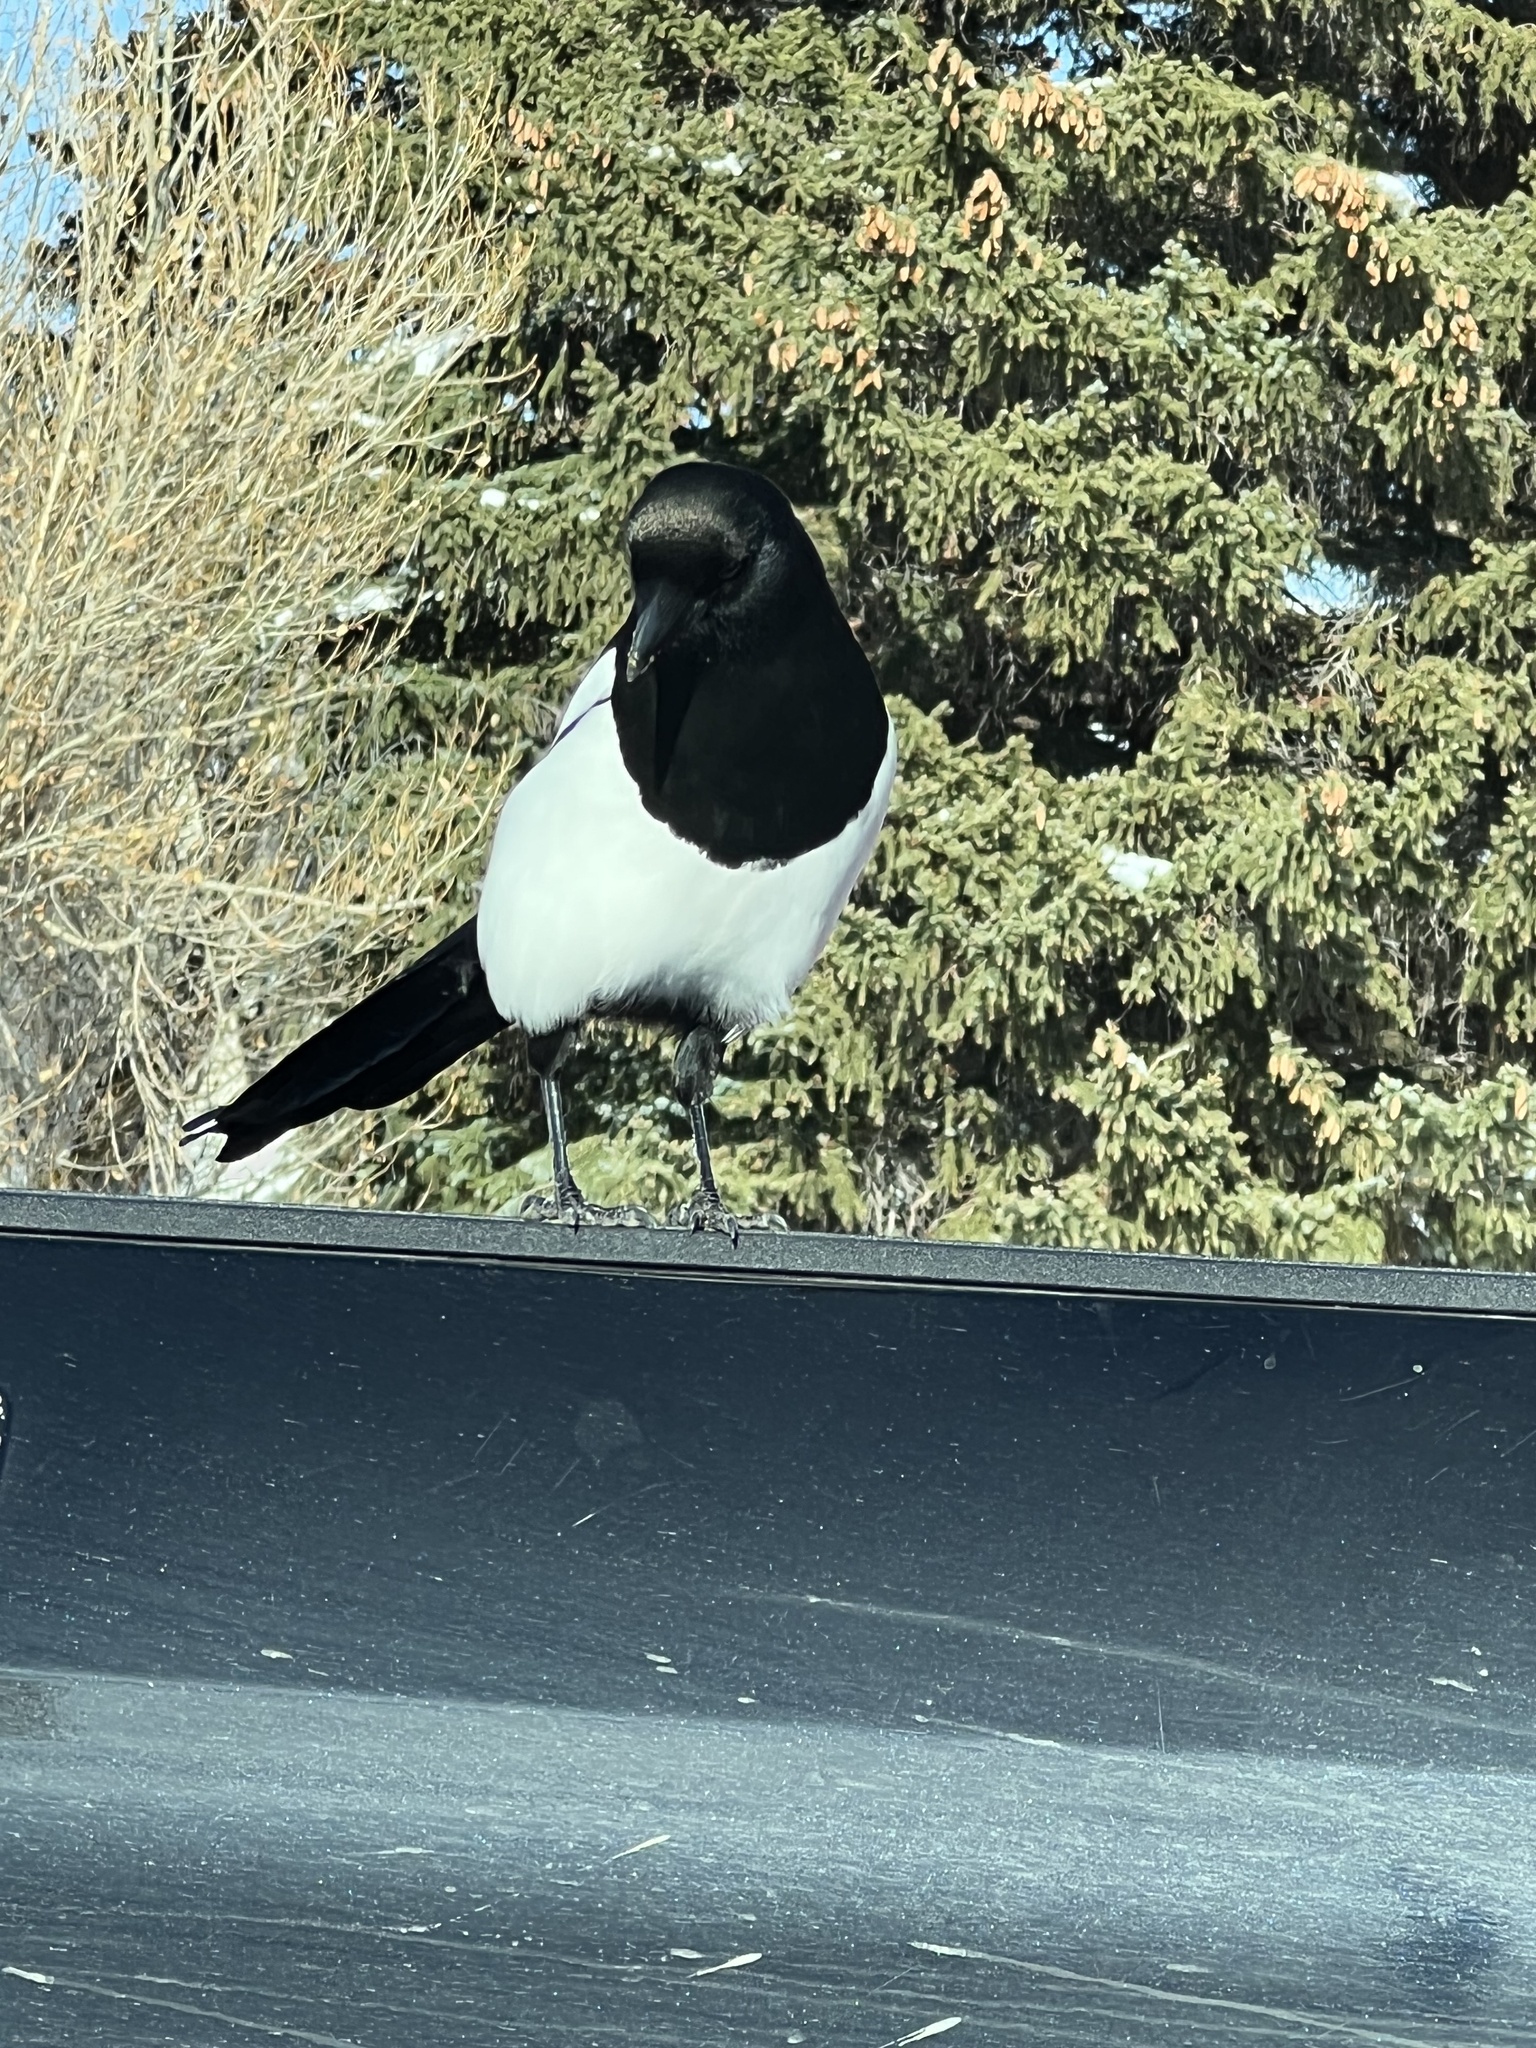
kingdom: Animalia
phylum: Chordata
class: Aves
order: Passeriformes
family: Corvidae
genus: Pica
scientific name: Pica hudsonia
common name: Black-billed magpie
